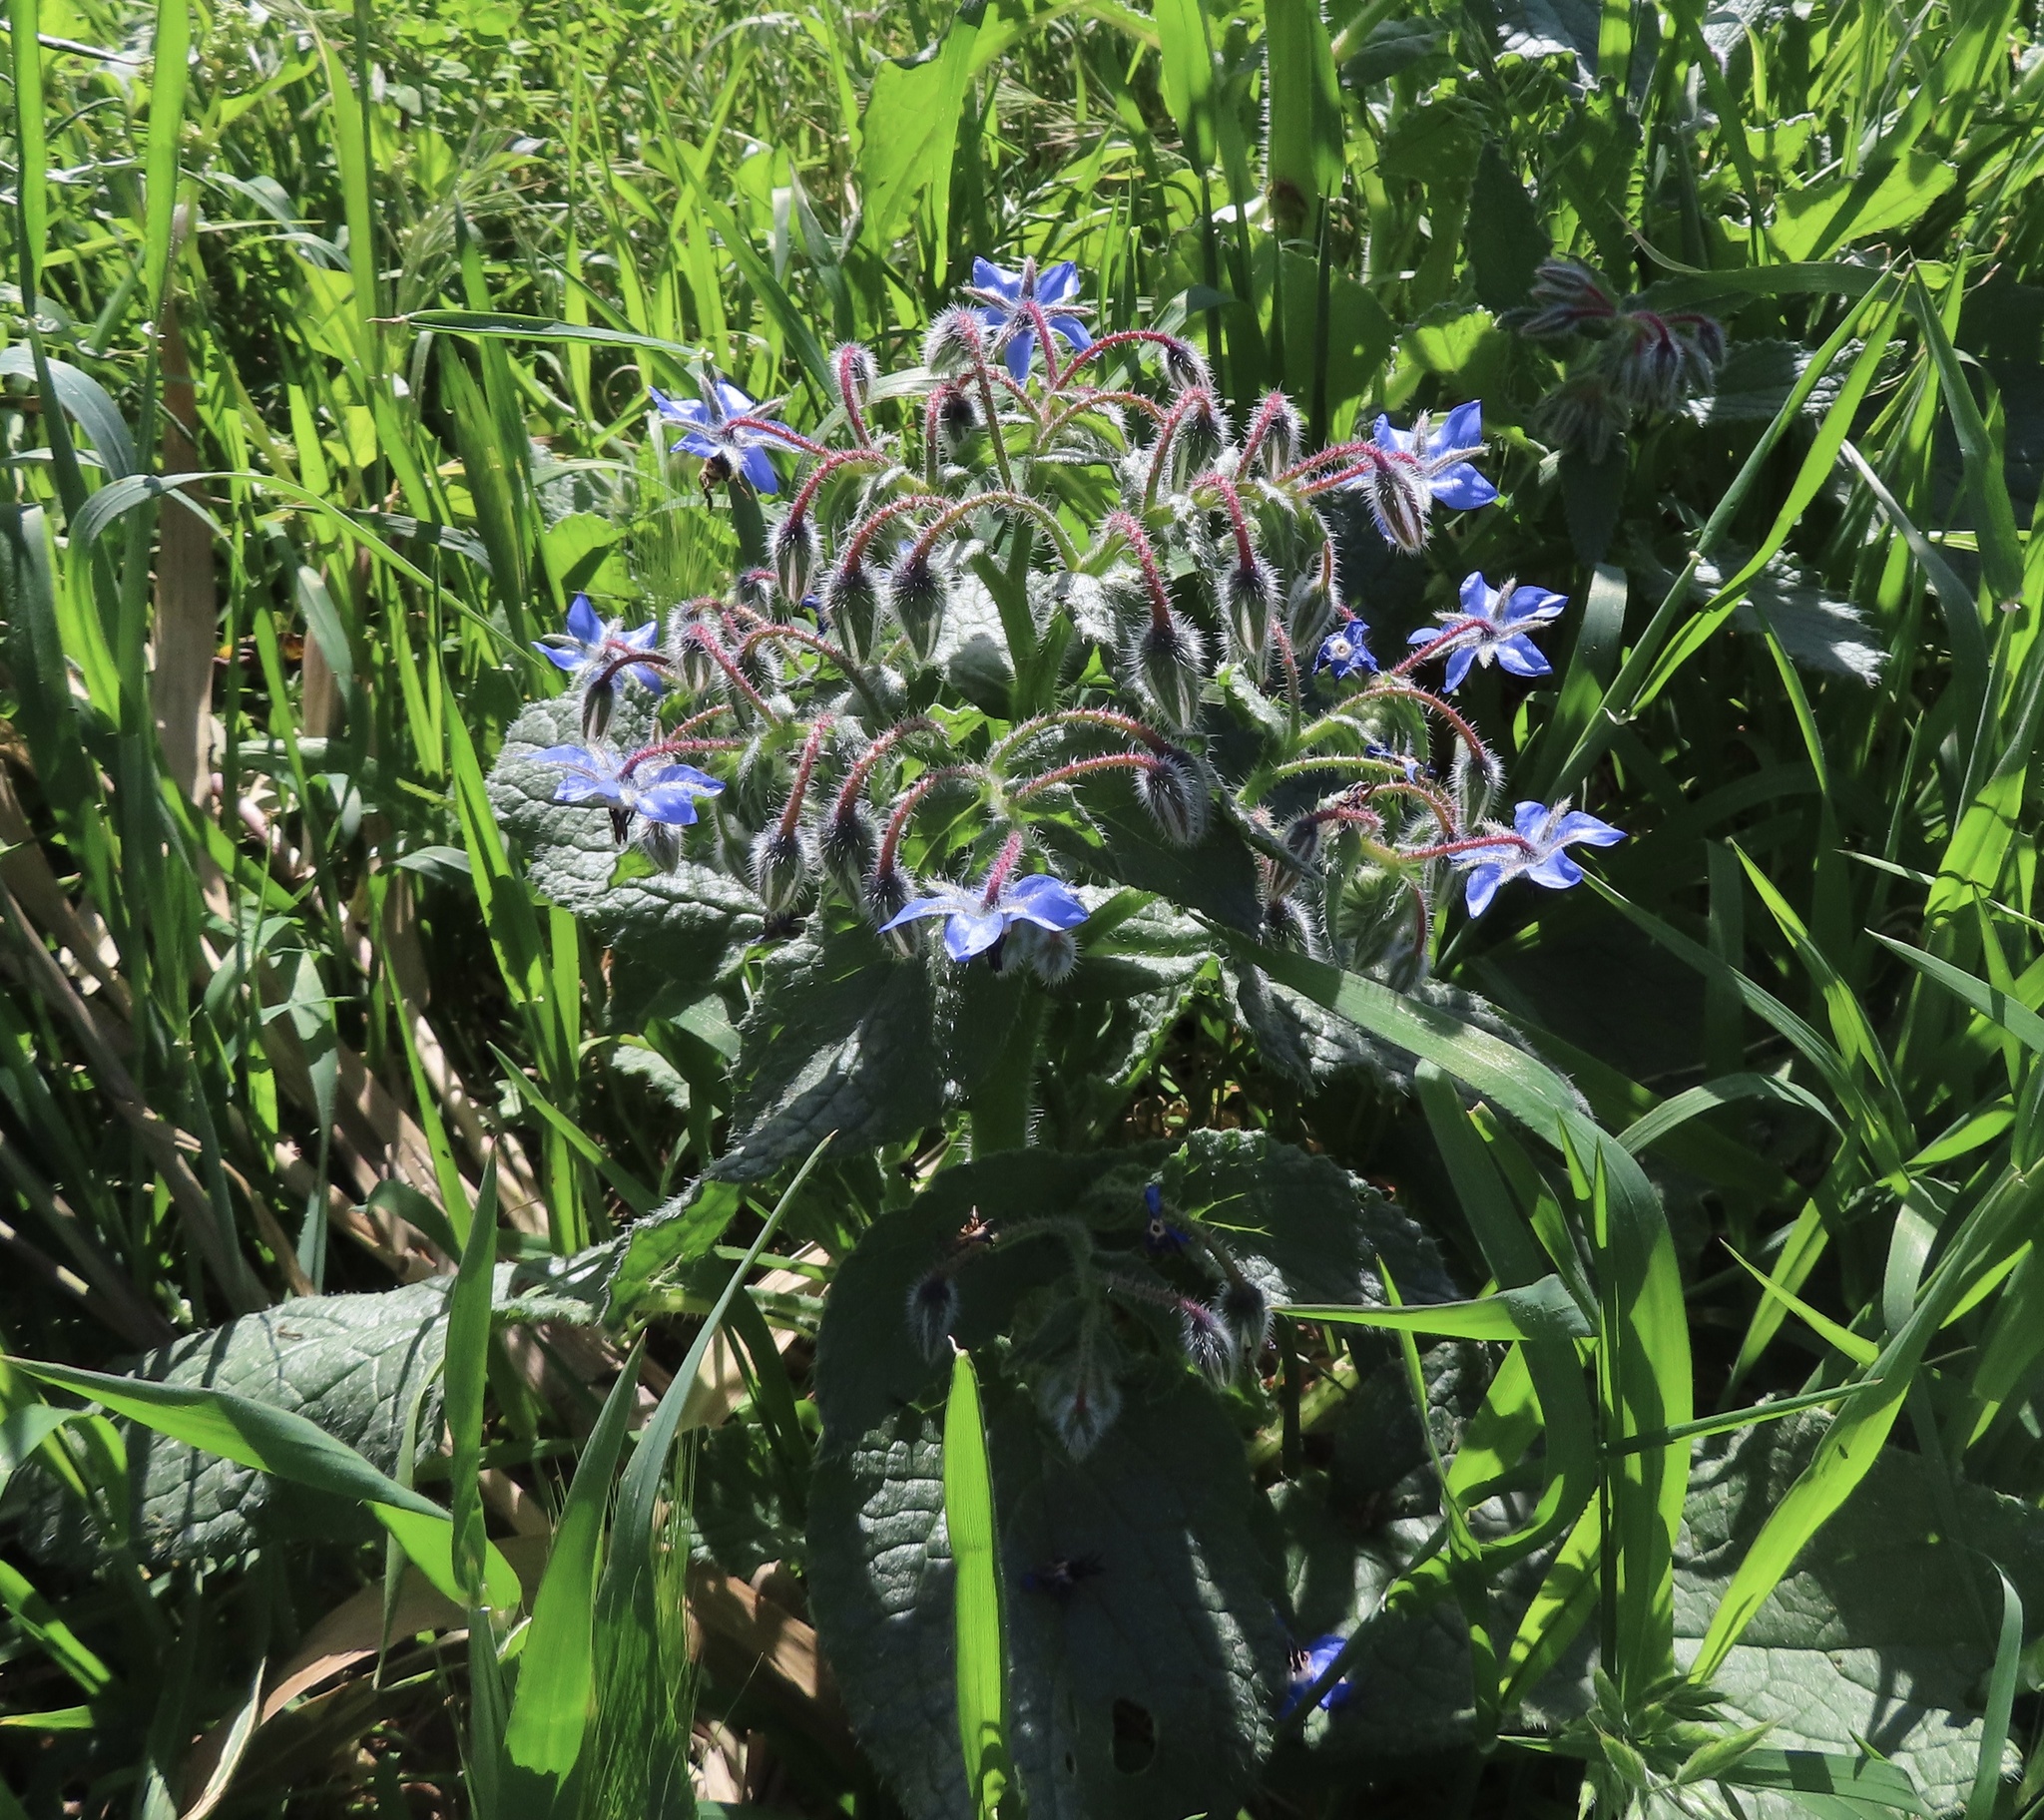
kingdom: Plantae
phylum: Tracheophyta
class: Magnoliopsida
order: Boraginales
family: Boraginaceae
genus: Borago
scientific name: Borago officinalis
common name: Borage
